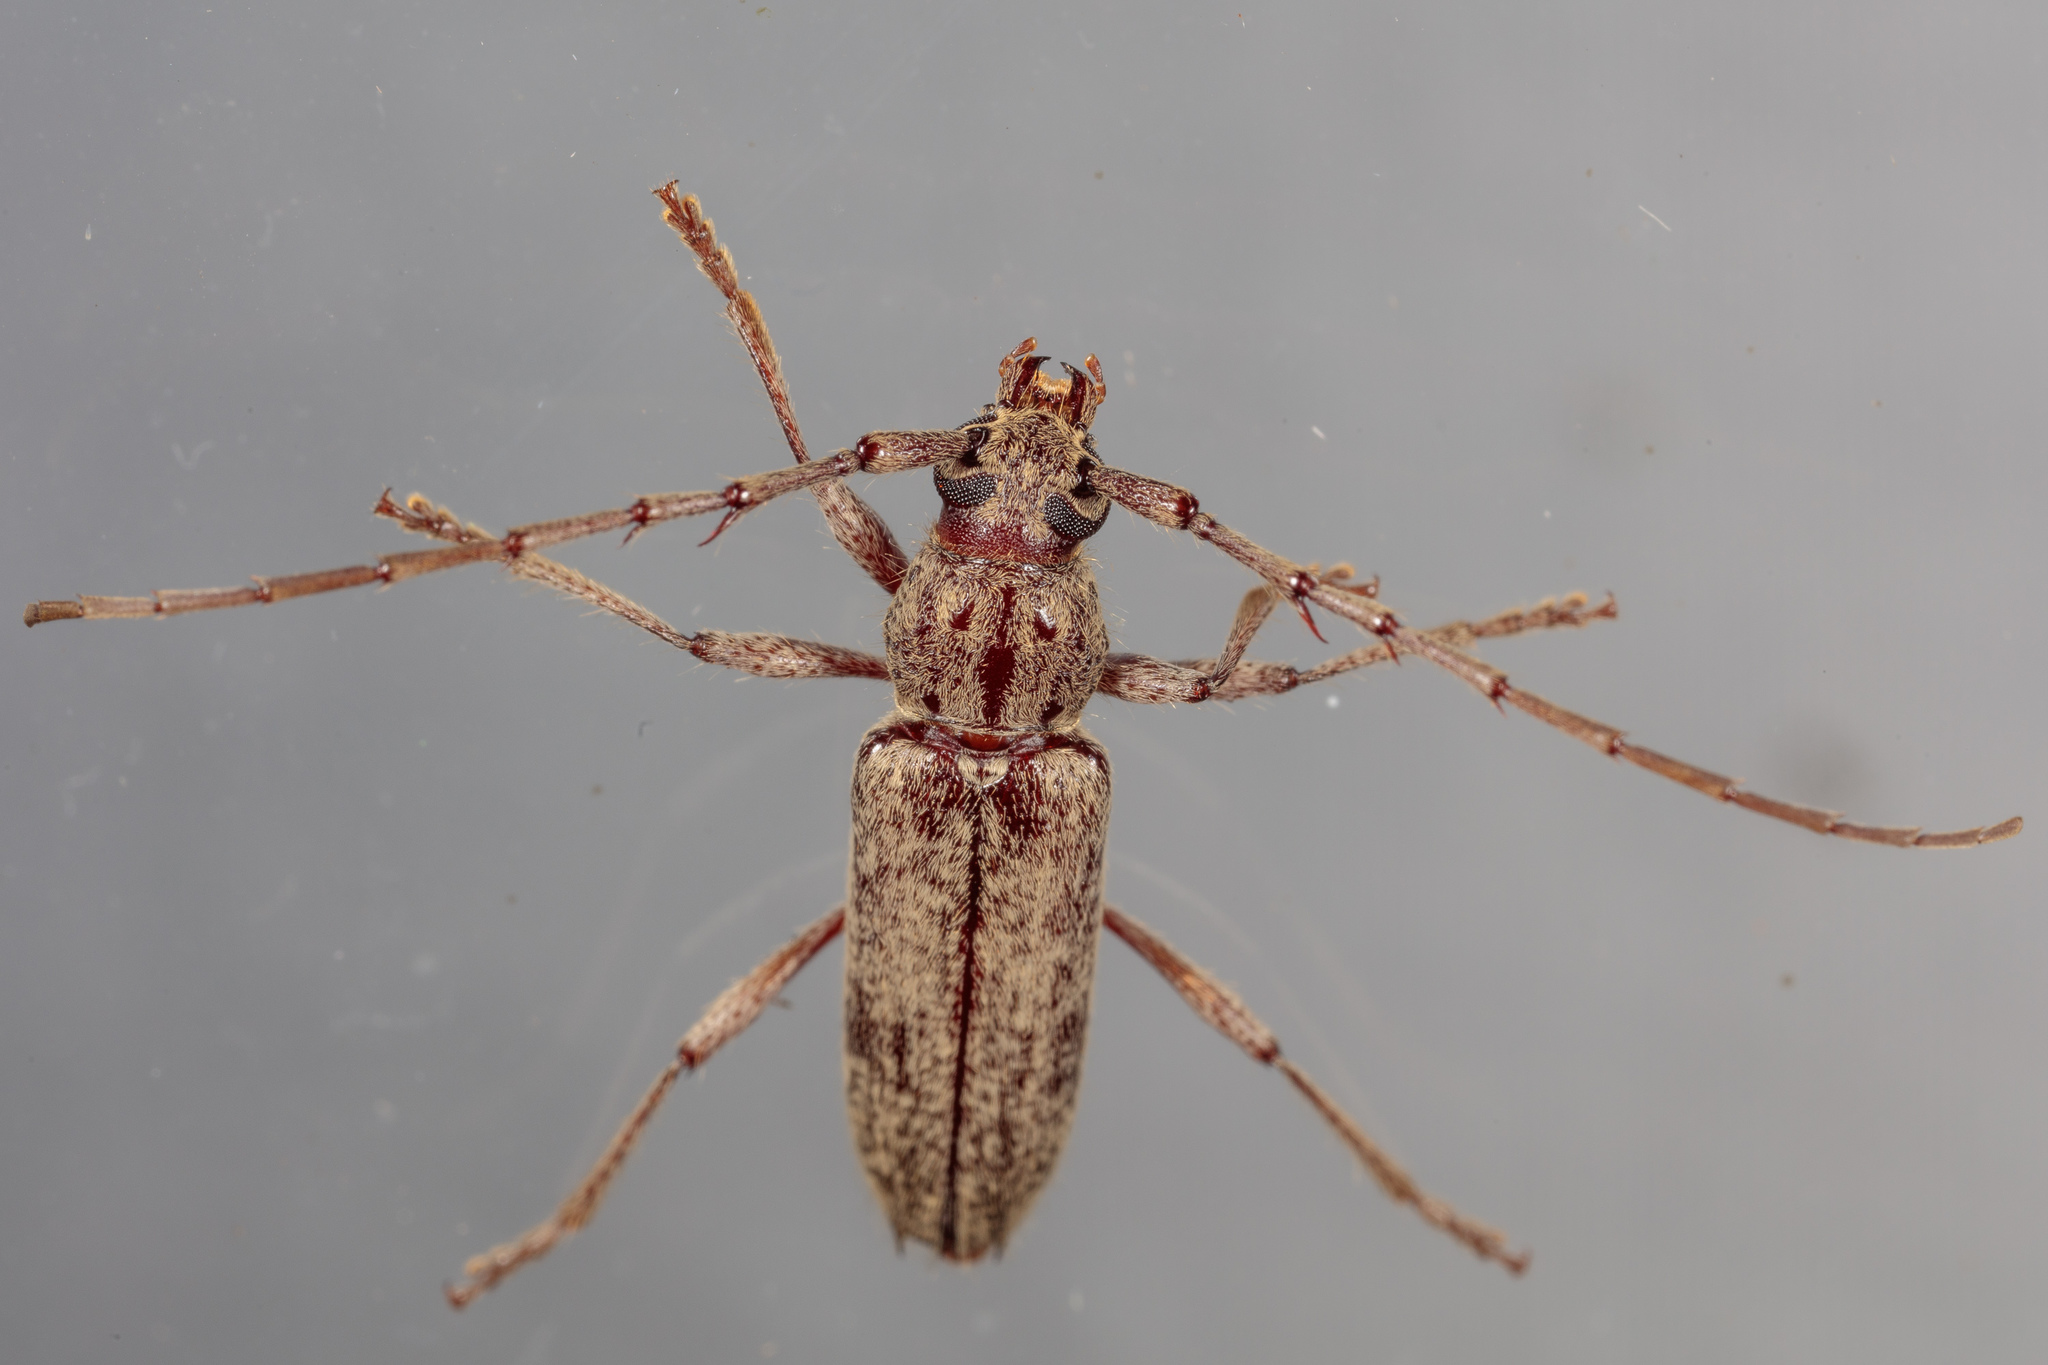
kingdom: Animalia
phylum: Arthropoda
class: Insecta
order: Coleoptera
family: Cerambycidae
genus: Elaphidion
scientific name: Elaphidion mucronatum
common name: Spined oak borer
